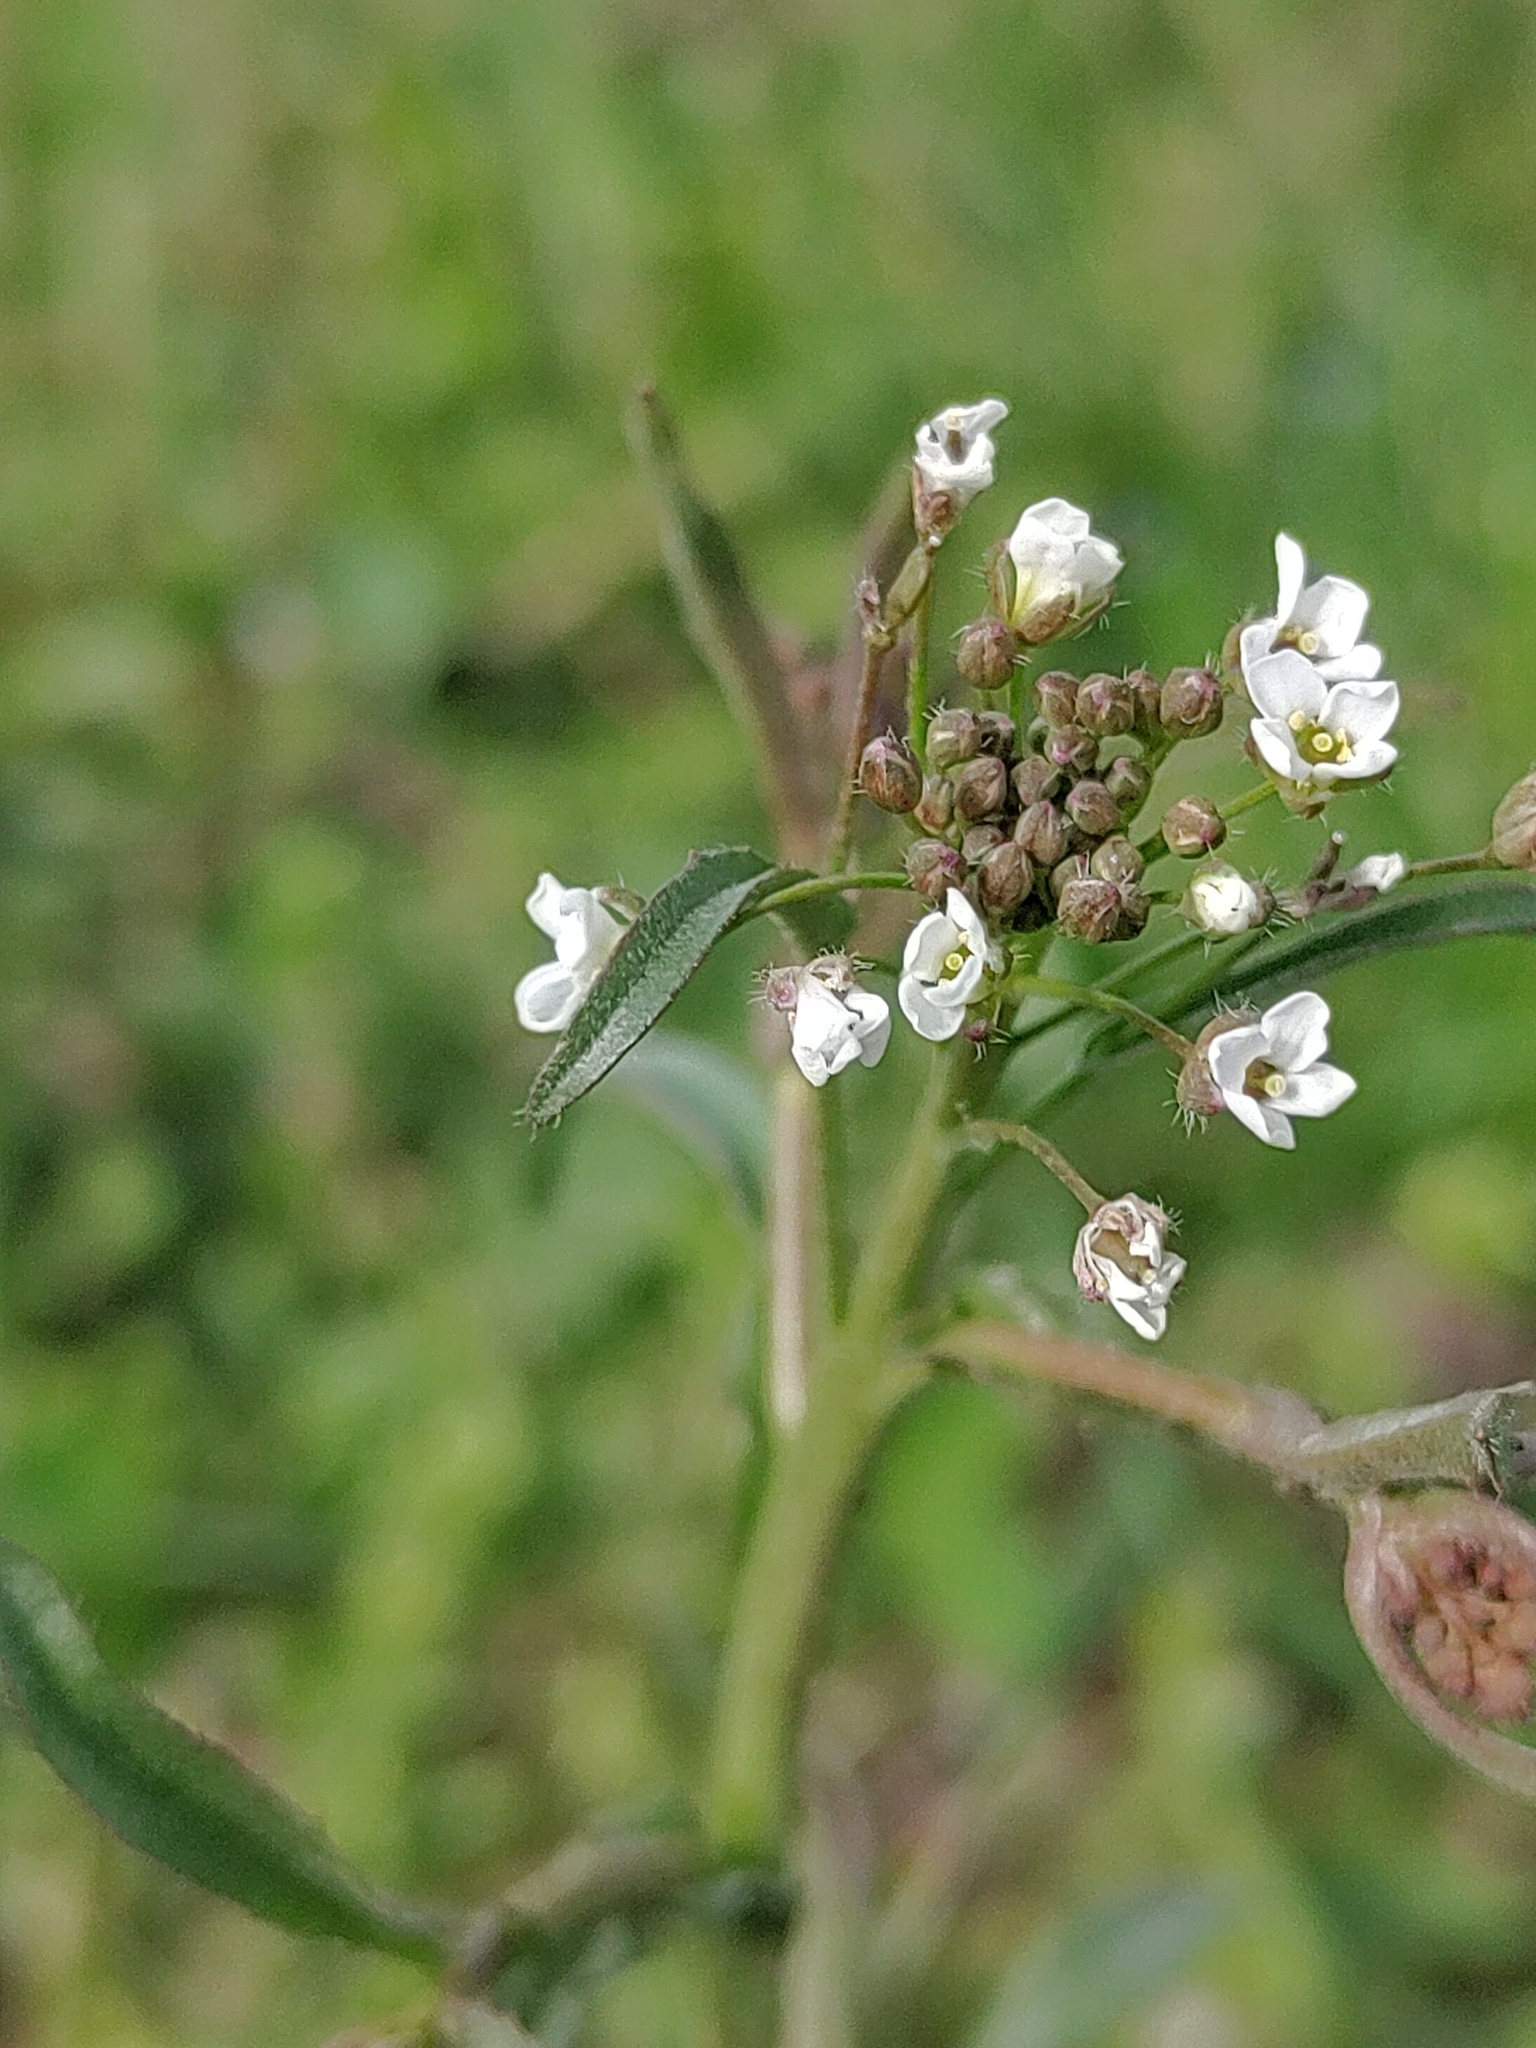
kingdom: Plantae
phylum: Tracheophyta
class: Magnoliopsida
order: Brassicales
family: Brassicaceae
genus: Capsella
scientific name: Capsella bursa-pastoris
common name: Shepherd's purse
